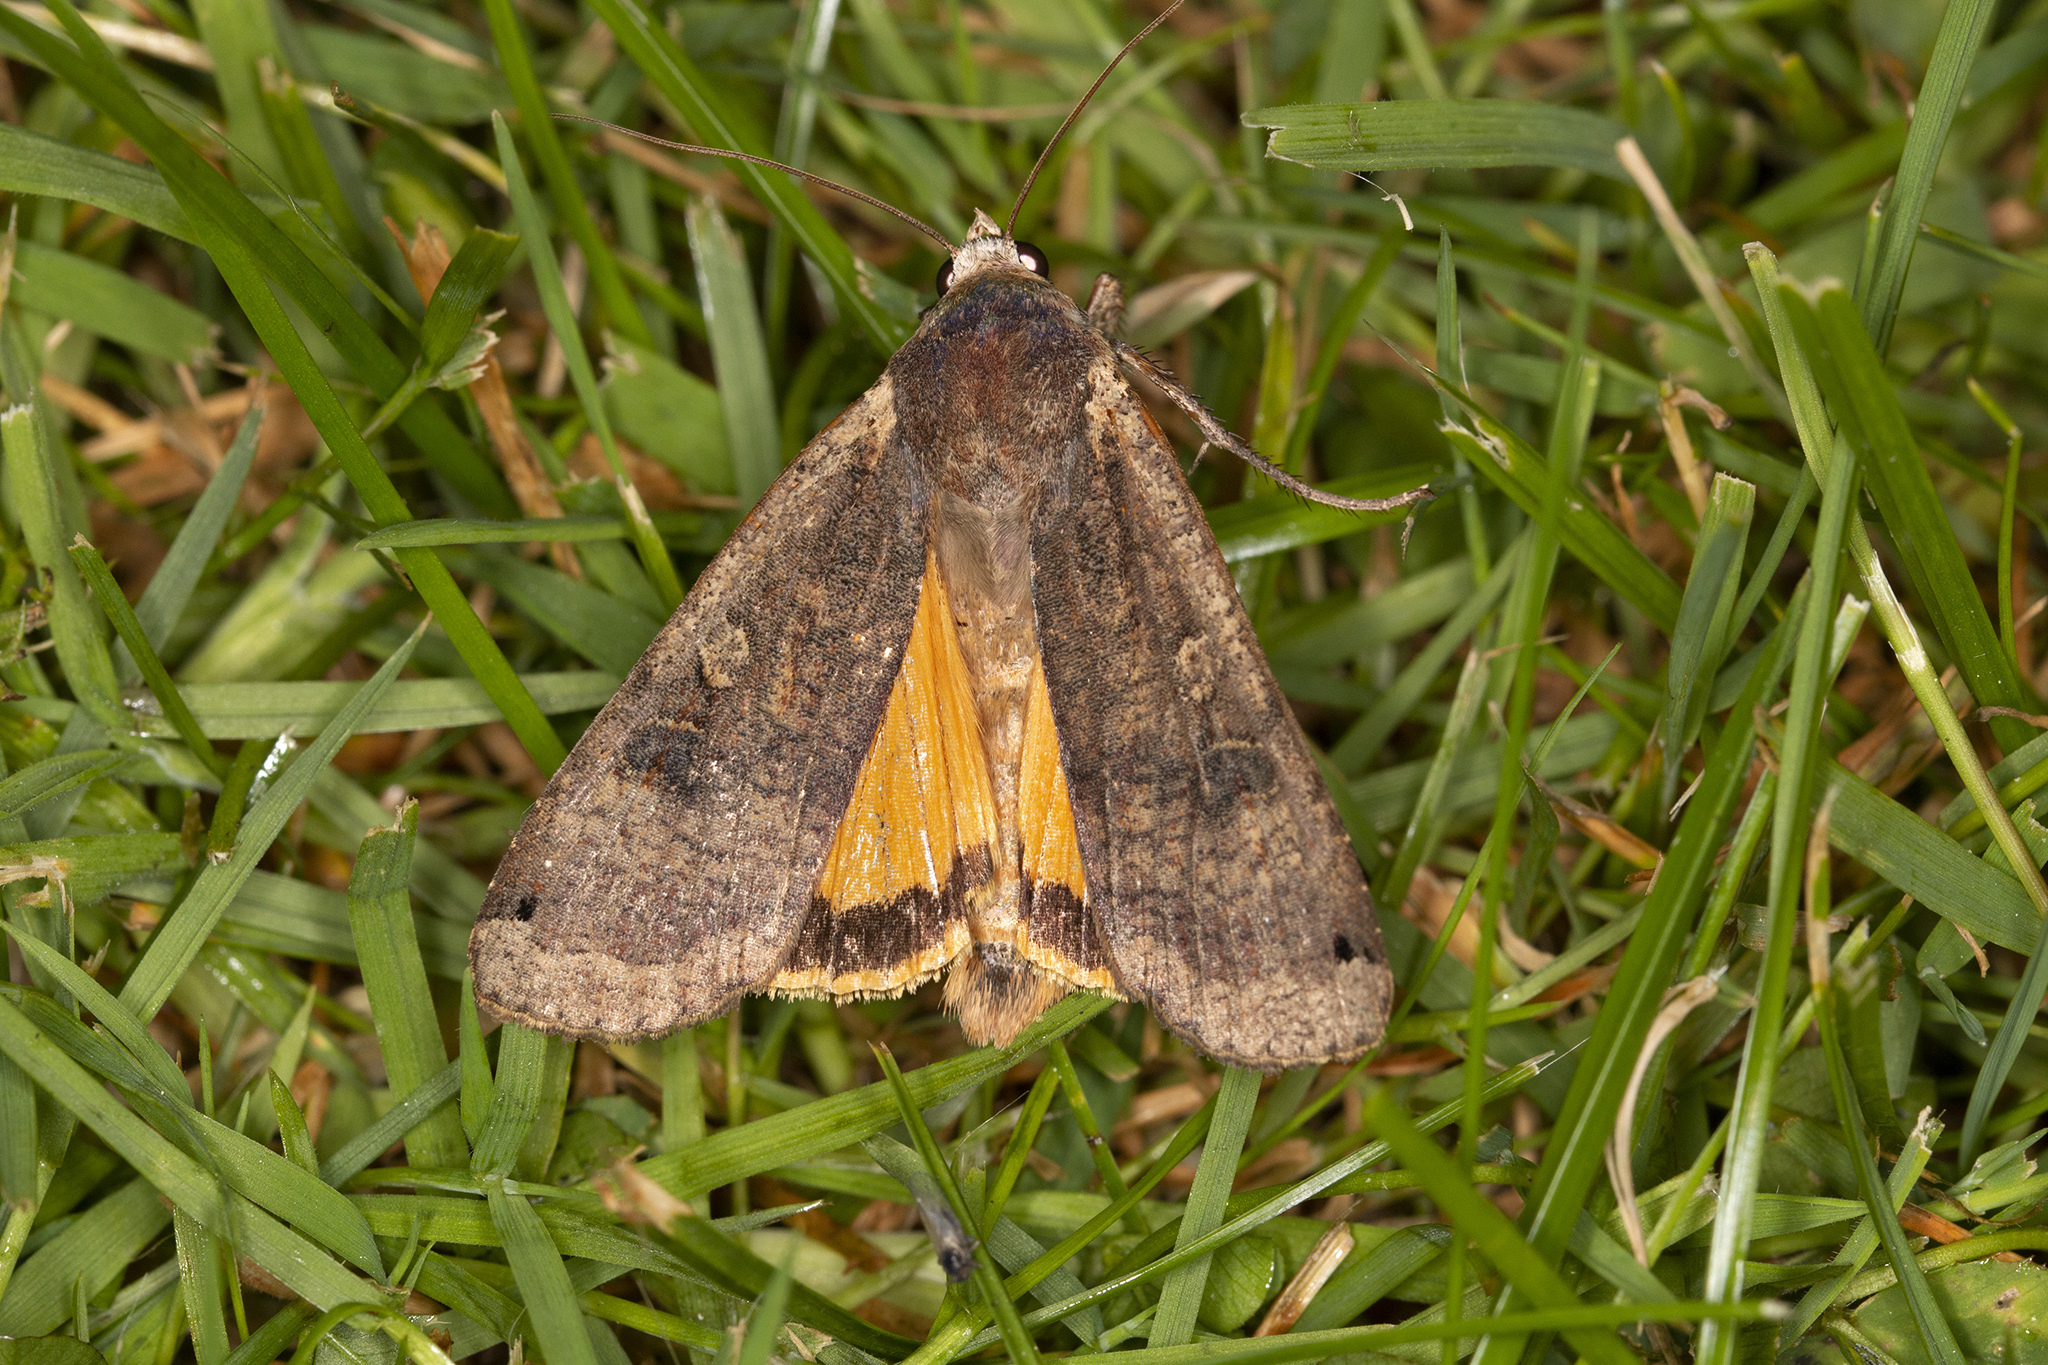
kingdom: Animalia
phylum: Arthropoda
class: Insecta
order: Lepidoptera
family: Noctuidae
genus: Noctua
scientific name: Noctua pronuba
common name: Large yellow underwing
